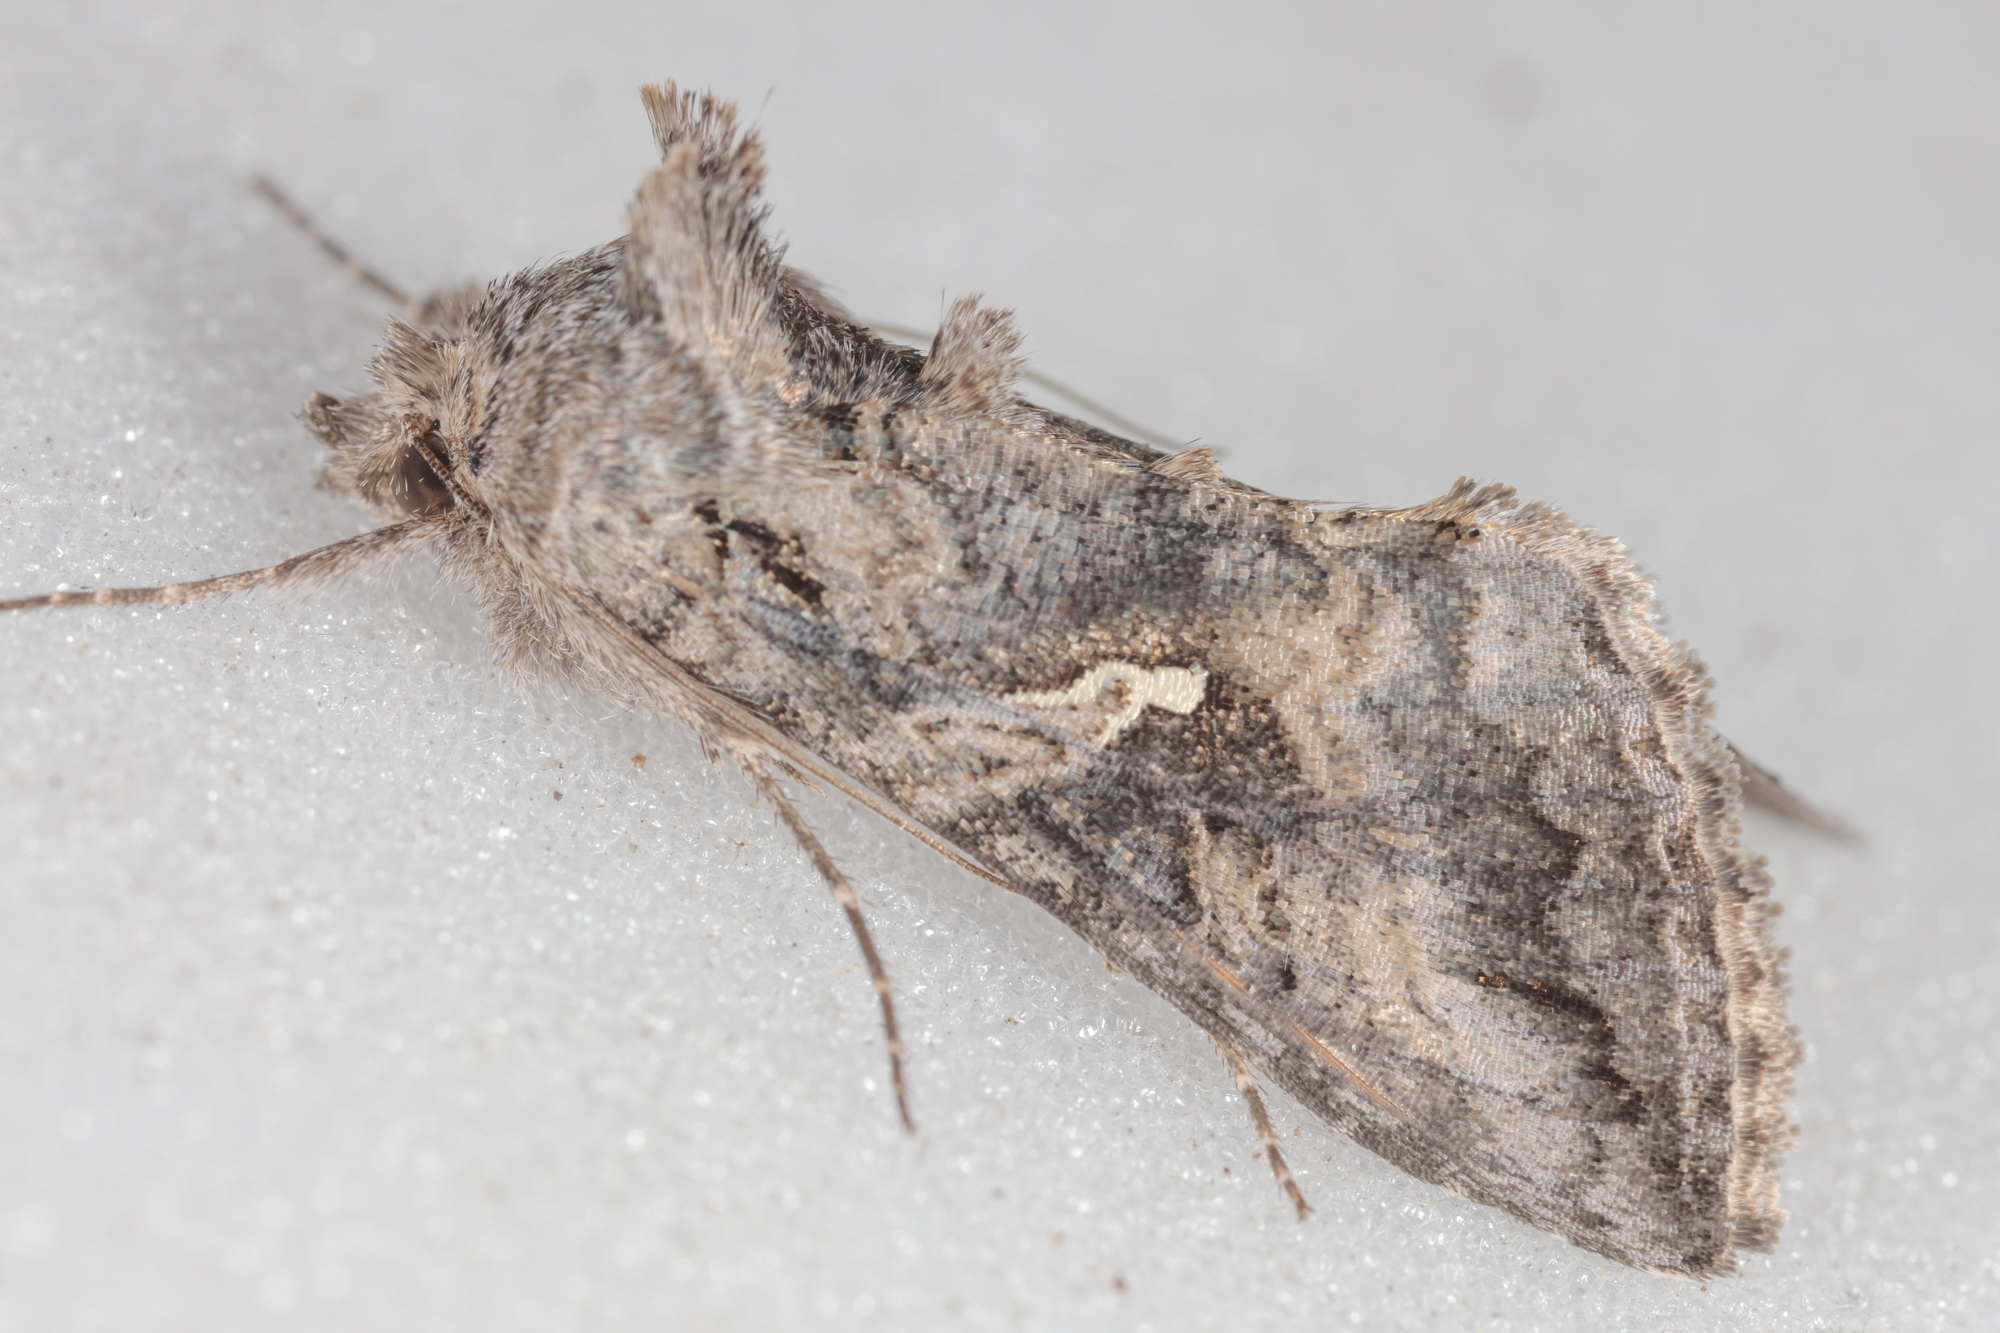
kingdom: Animalia
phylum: Arthropoda
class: Insecta
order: Lepidoptera
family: Noctuidae
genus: Rachiplusia
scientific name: Rachiplusia ou
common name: Gray looper moth
